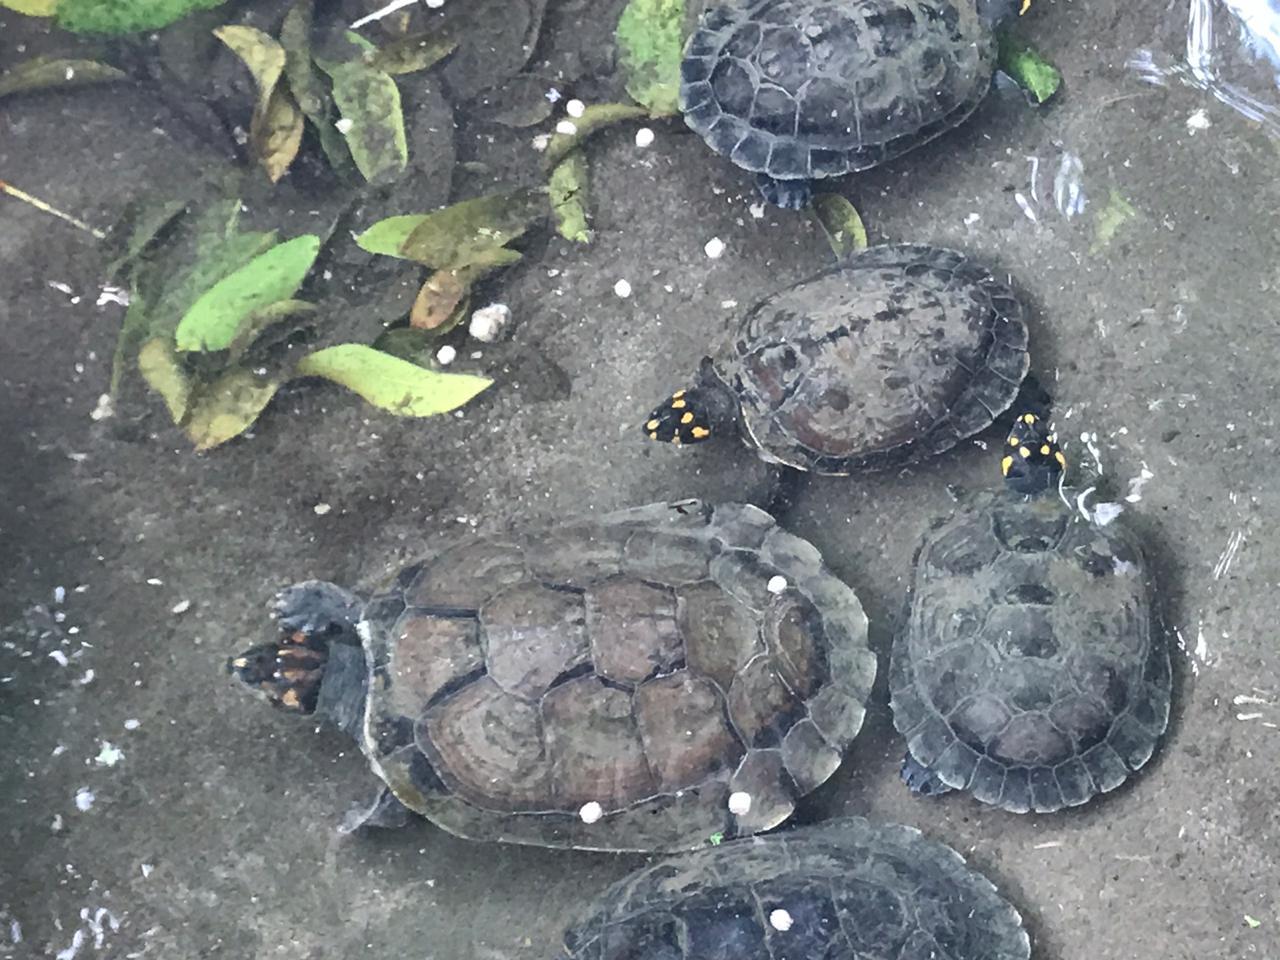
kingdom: Animalia
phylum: Chordata
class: Testudines
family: Podocnemididae
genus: Podocnemis
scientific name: Podocnemis unifilis
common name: Yellow-spotted amazon river turtle
